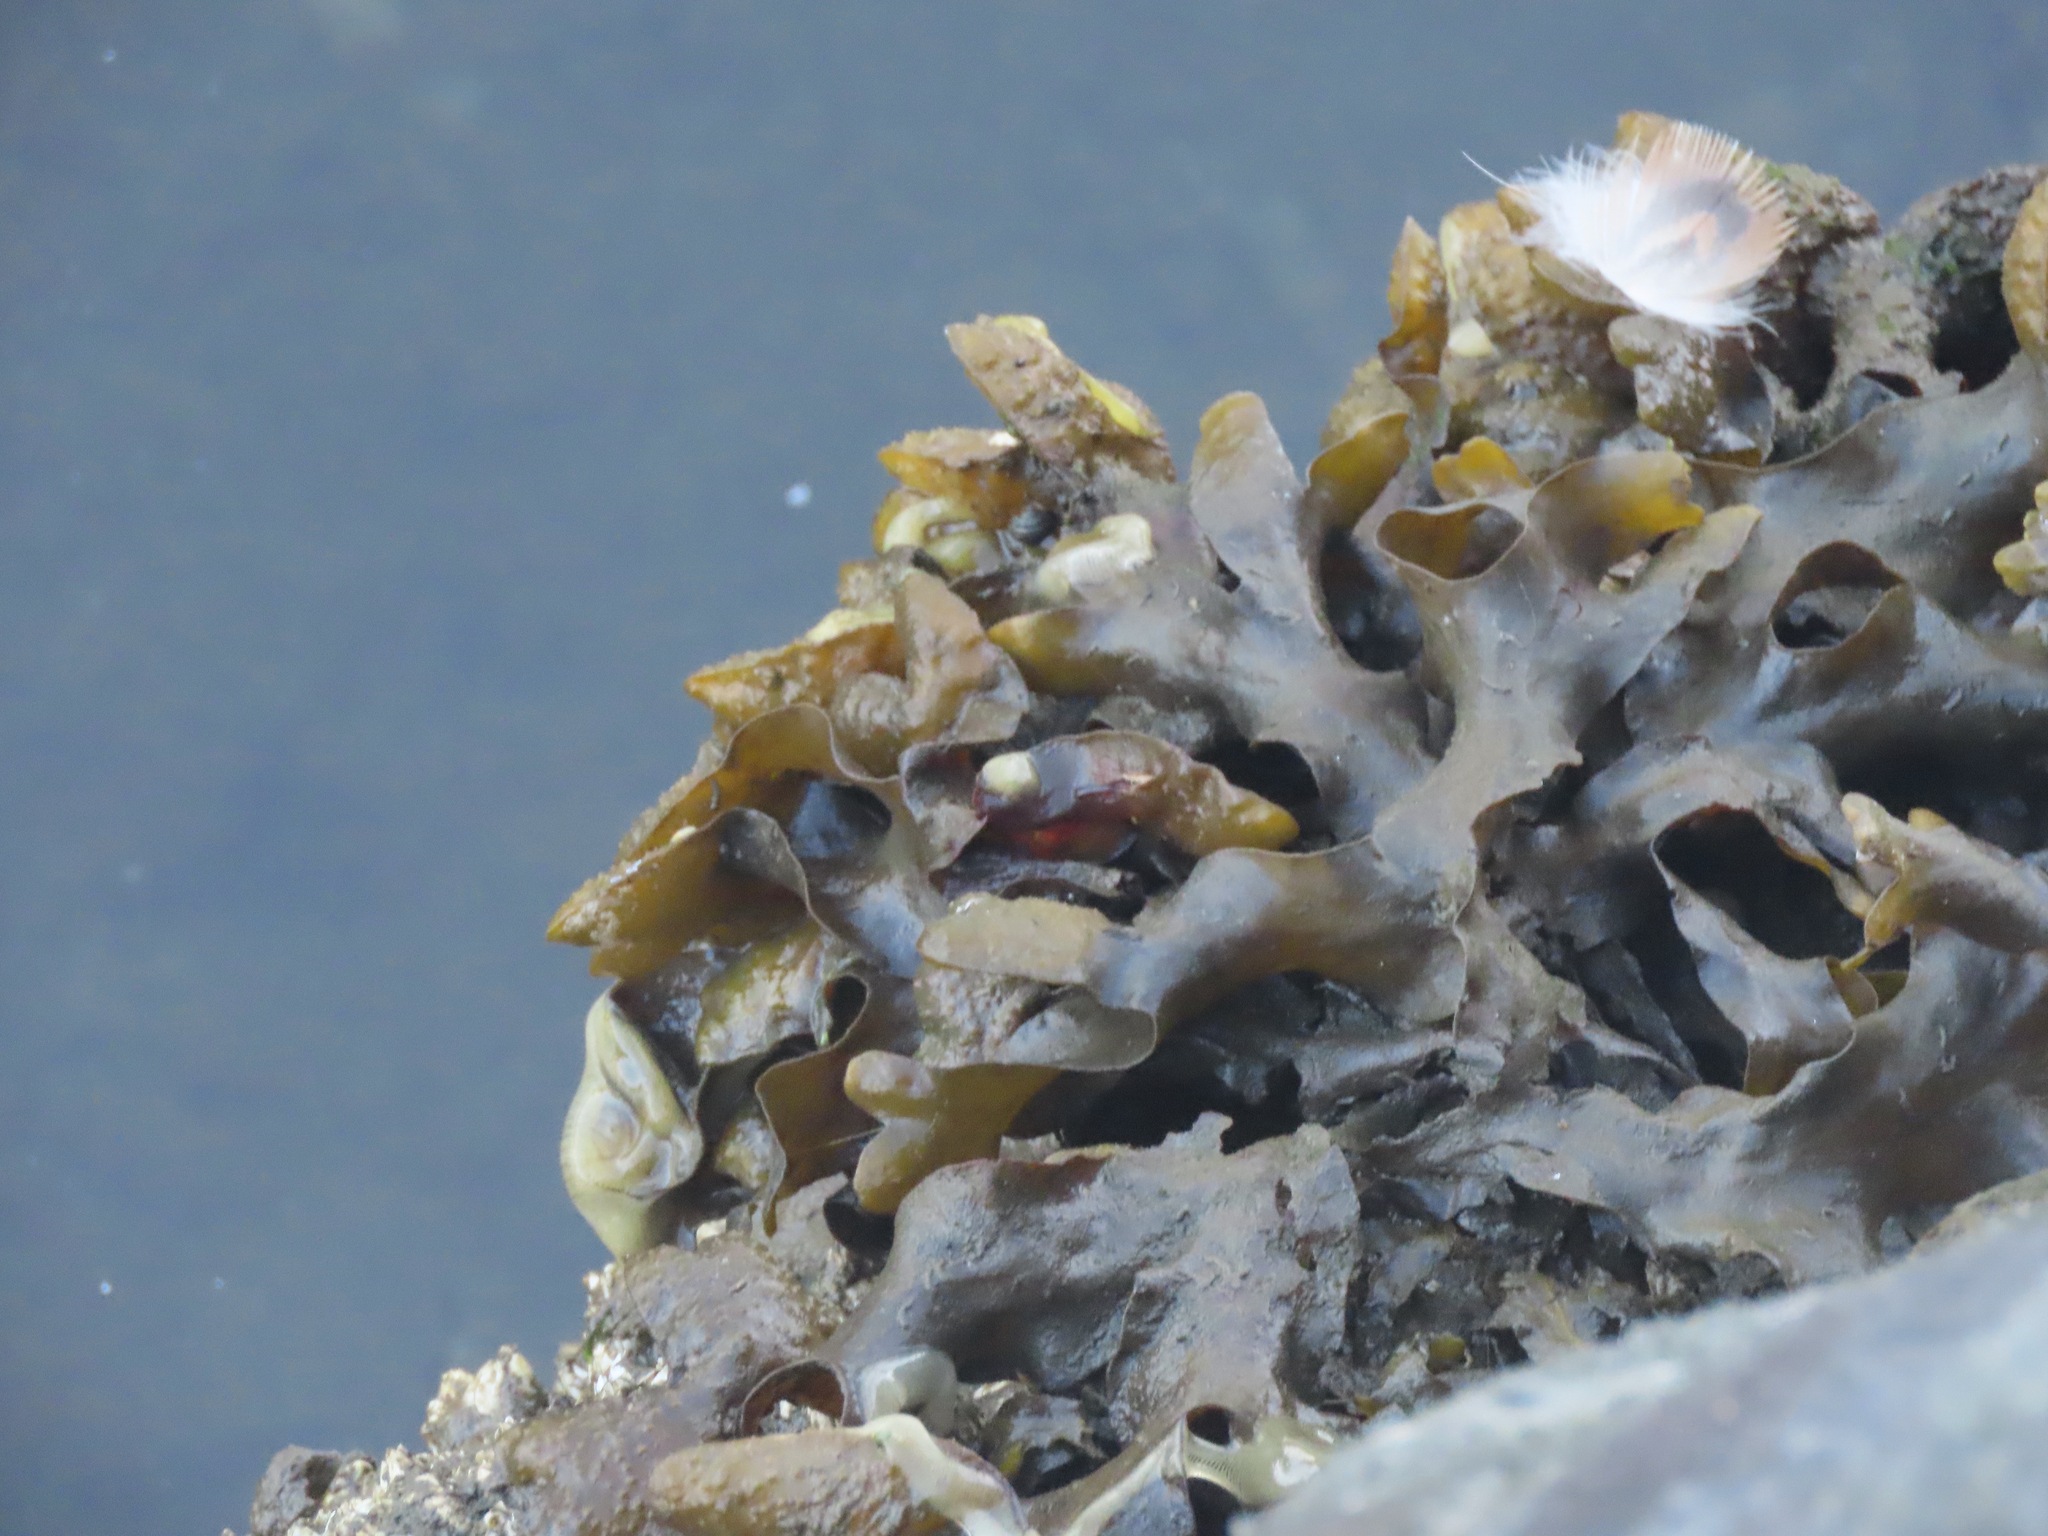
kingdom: Chromista
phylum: Ochrophyta
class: Phaeophyceae
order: Fucales
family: Fucaceae
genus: Fucus
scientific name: Fucus distichus
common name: Rockweed
